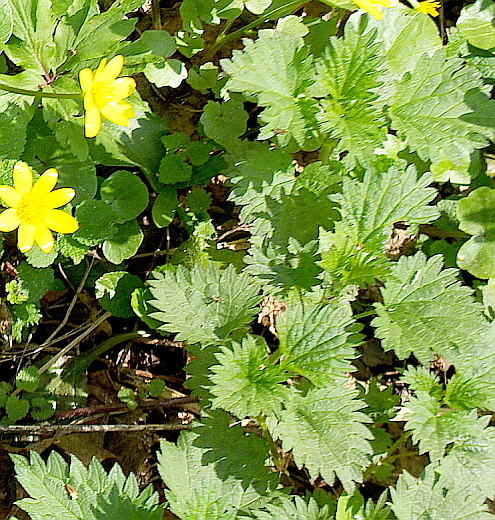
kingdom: Plantae
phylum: Tracheophyta
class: Magnoliopsida
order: Rosales
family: Urticaceae
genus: Urtica
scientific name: Urtica dioica
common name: Common nettle
